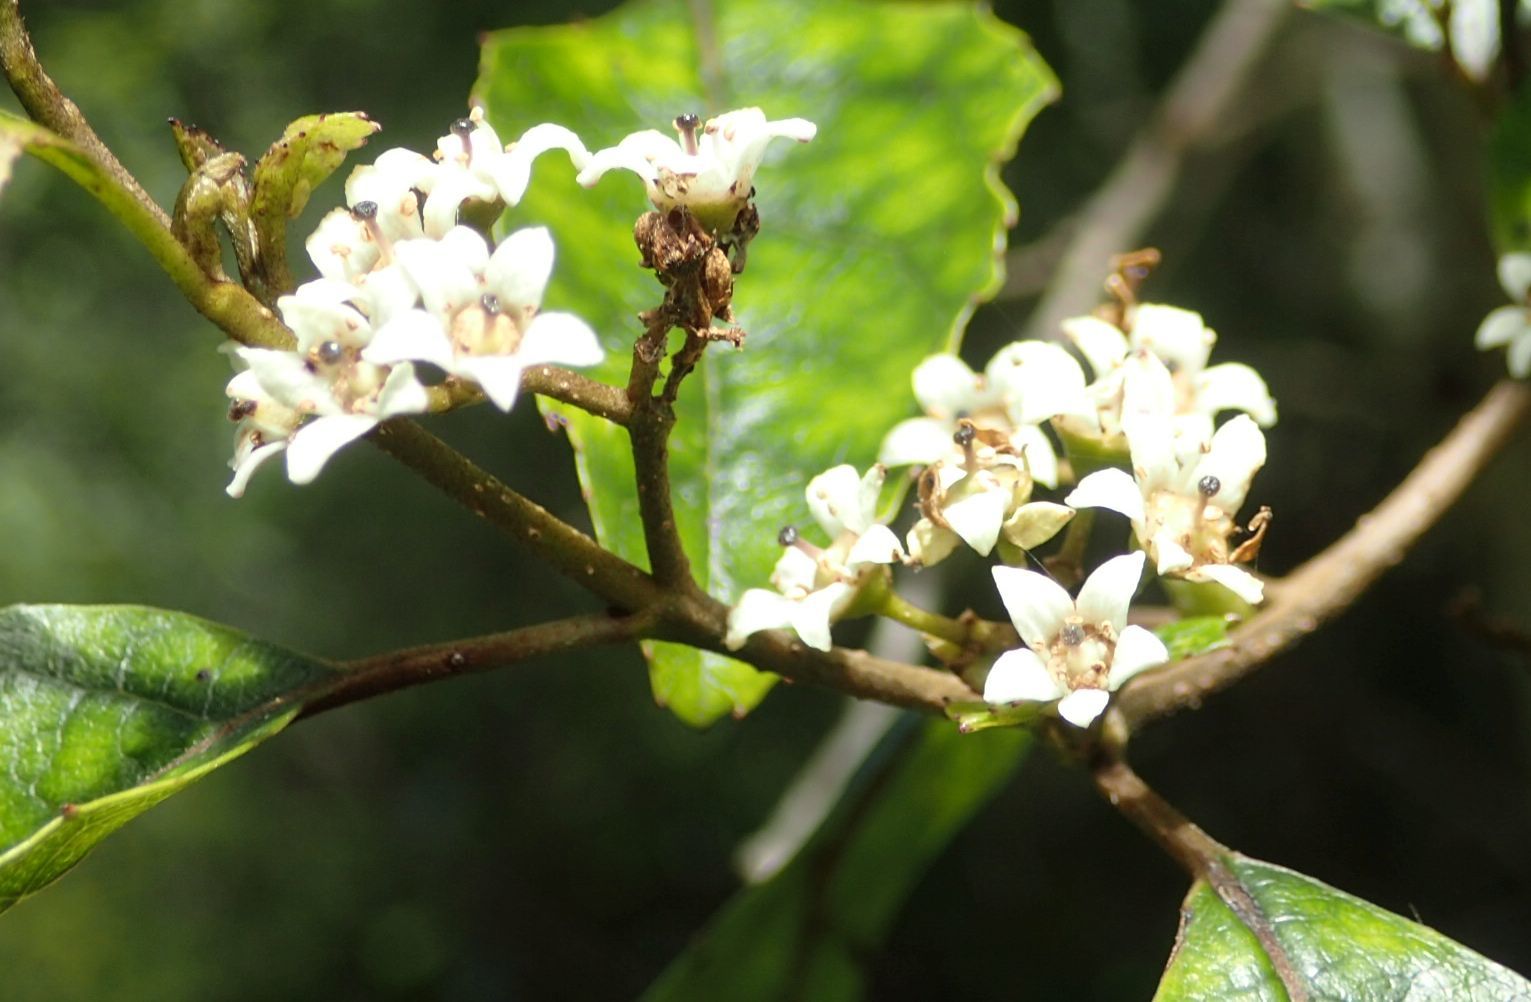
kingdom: Plantae
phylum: Tracheophyta
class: Magnoliopsida
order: Asterales
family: Rousseaceae
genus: Carpodetus
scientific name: Carpodetus serratus
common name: White mapau
